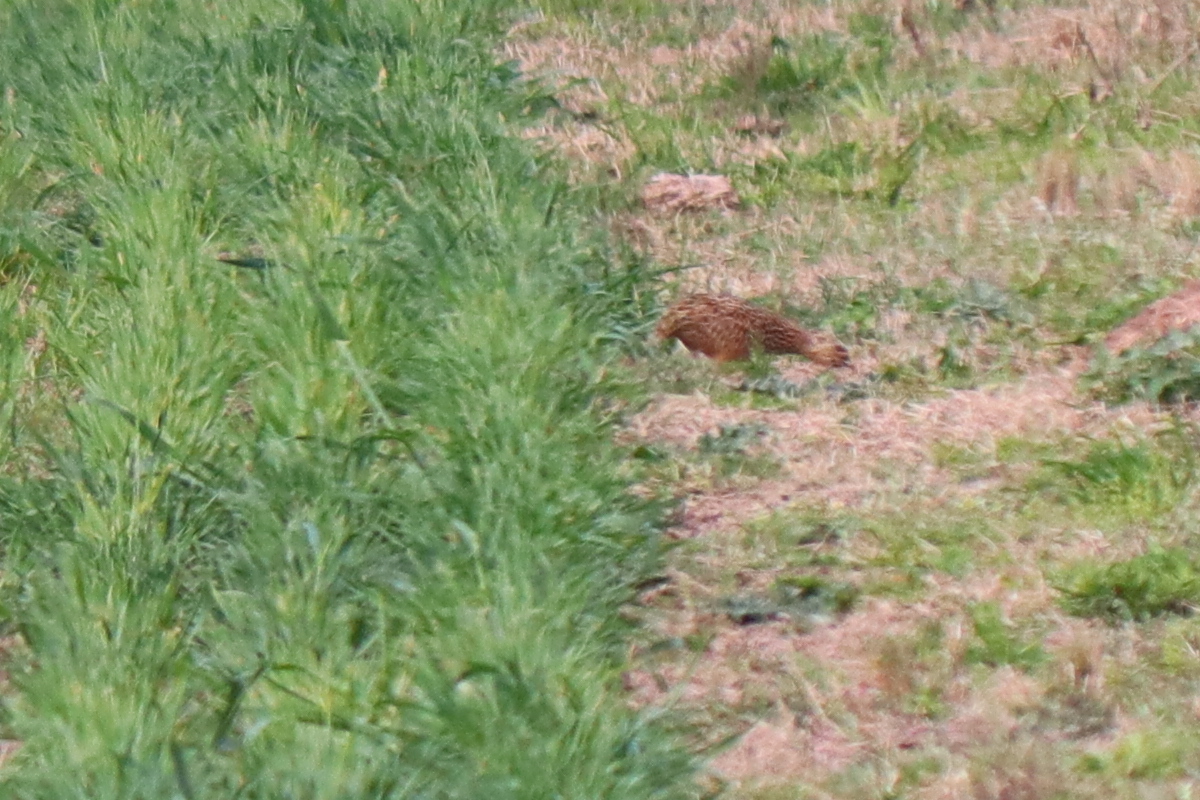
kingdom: Animalia
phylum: Chordata
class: Aves
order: Tinamiformes
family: Tinamidae
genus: Nothura
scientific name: Nothura maculosa
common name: Spotted nothura
